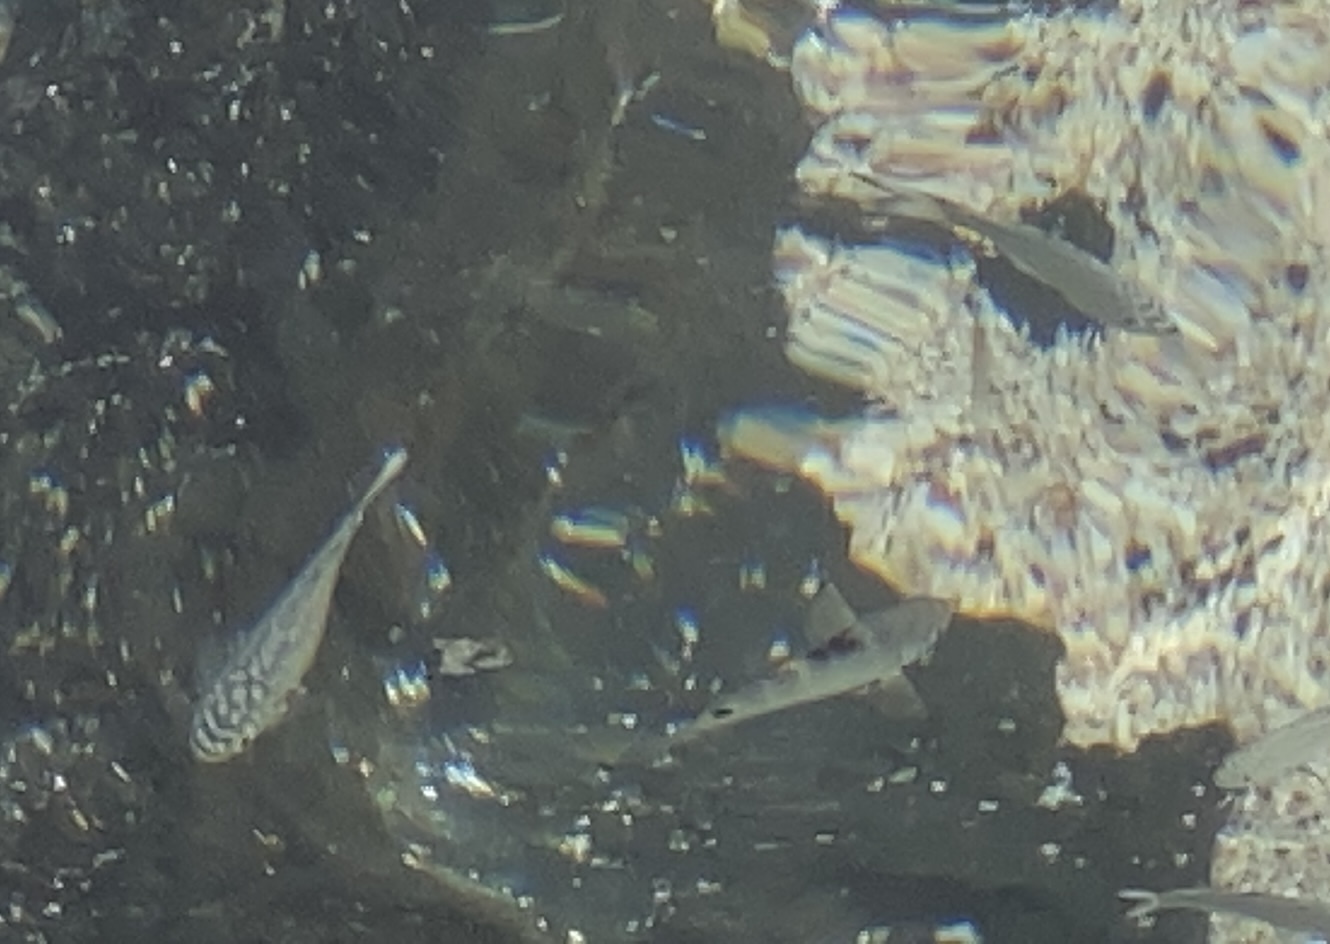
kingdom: Animalia
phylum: Chordata
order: Perciformes
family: Kuhliidae
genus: Kuhlia
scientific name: Kuhlia sandvicensis
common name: Hawaiian flagtail
